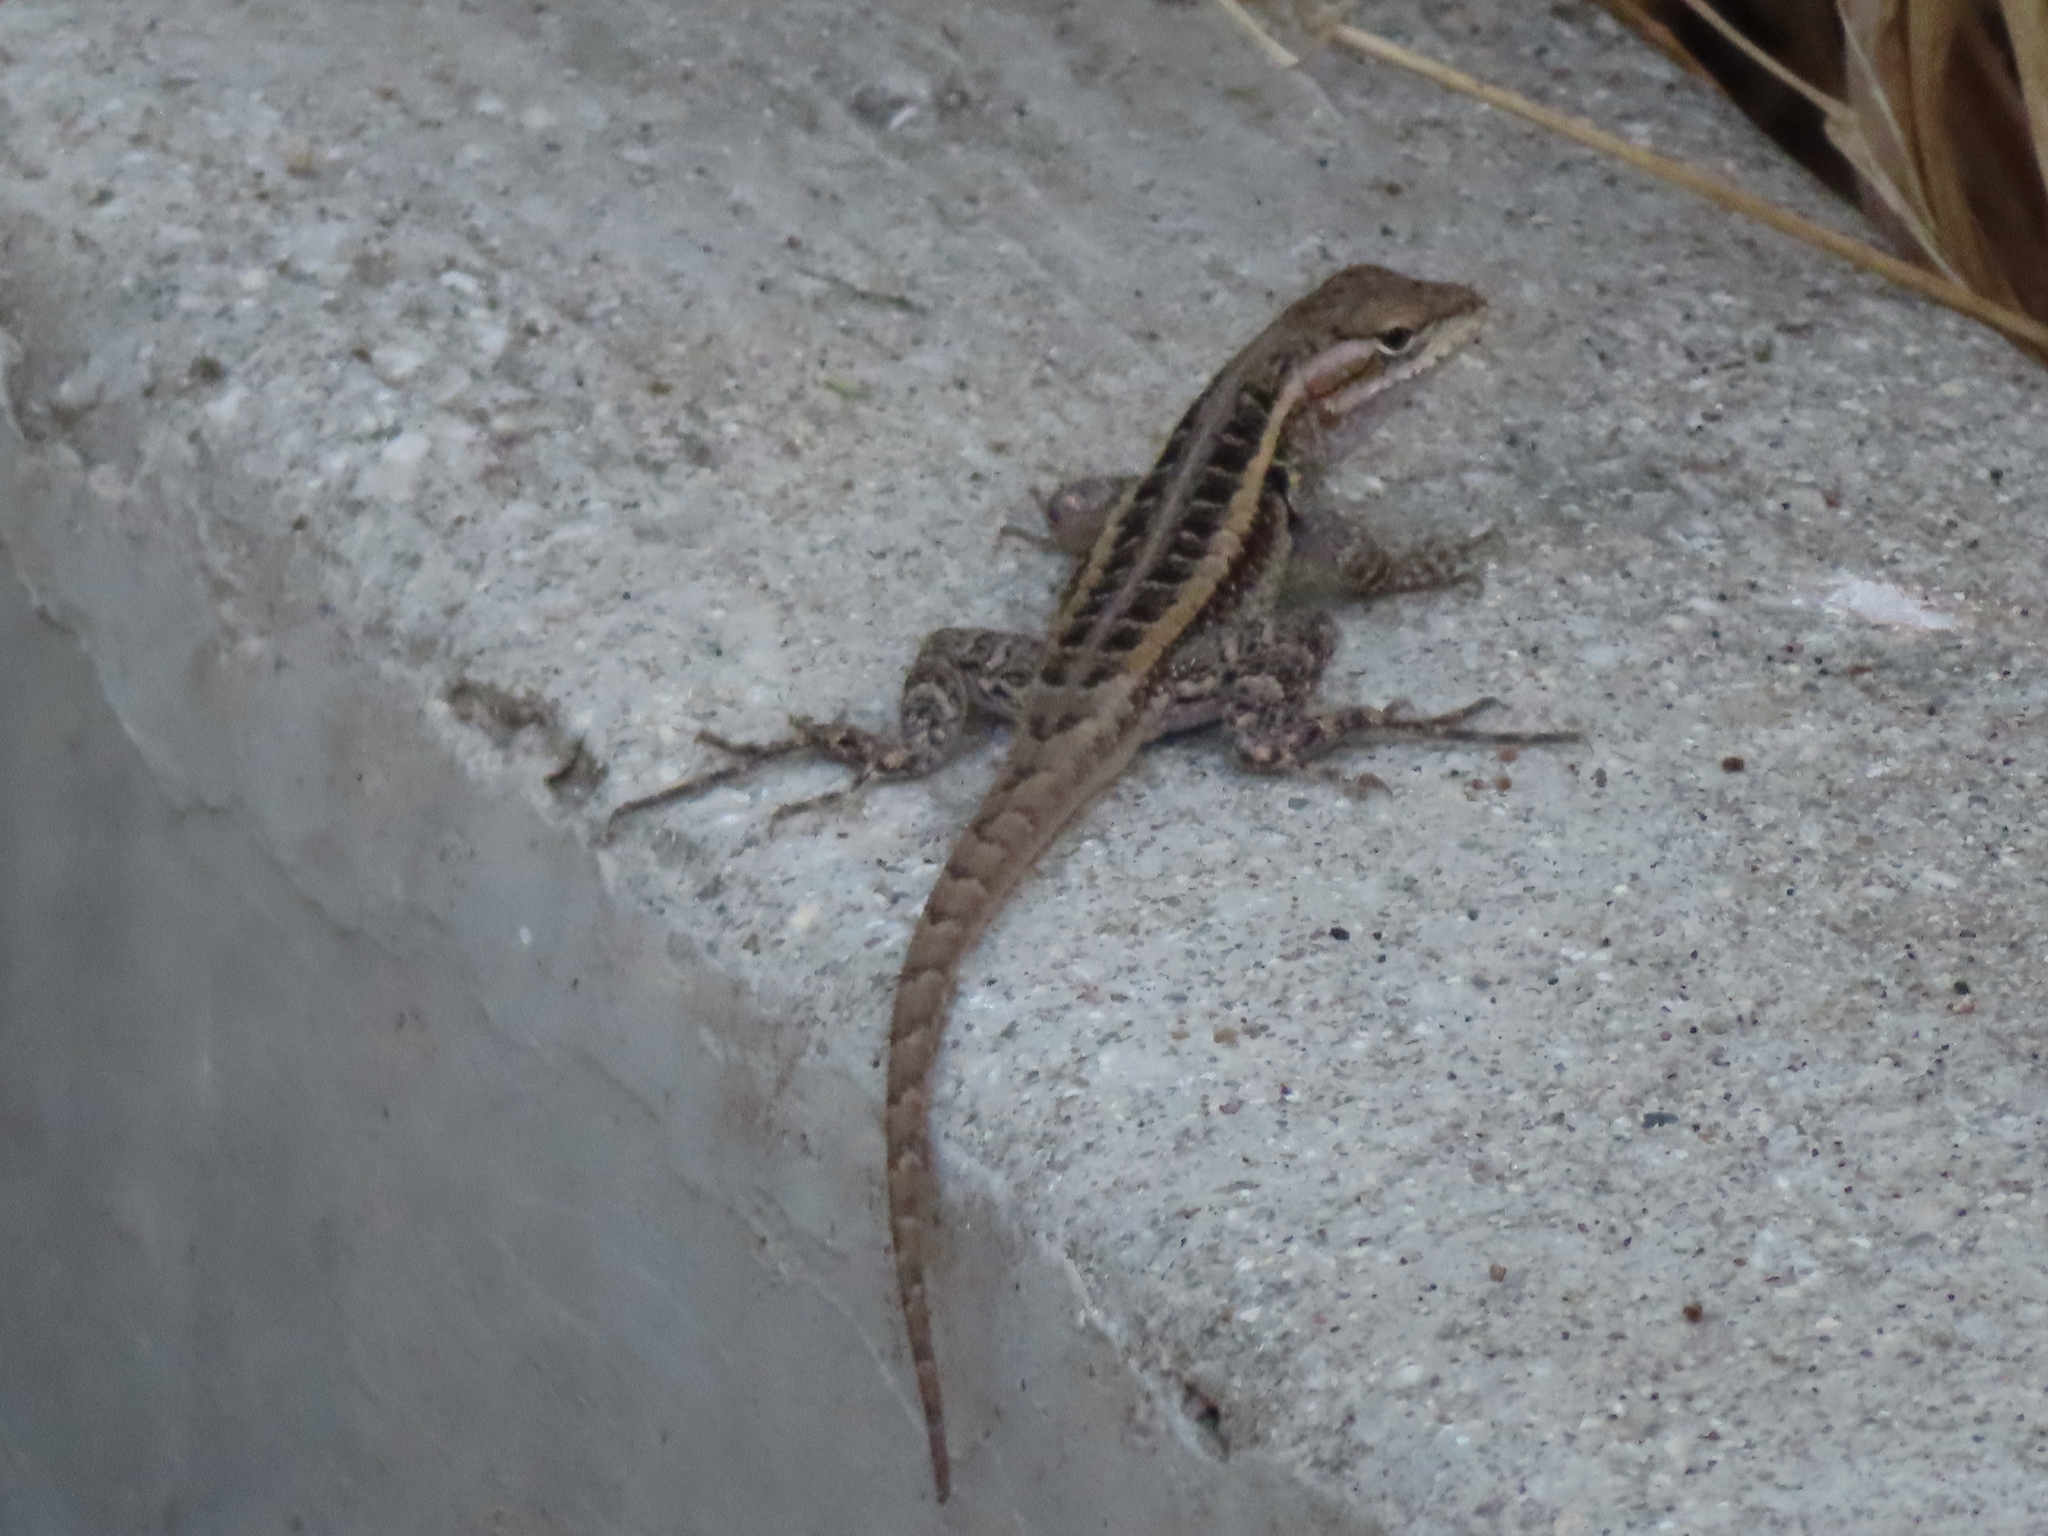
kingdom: Animalia
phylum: Chordata
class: Squamata
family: Phrynosomatidae
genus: Sceloporus
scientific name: Sceloporus variabilis
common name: Rosebelly lizard
